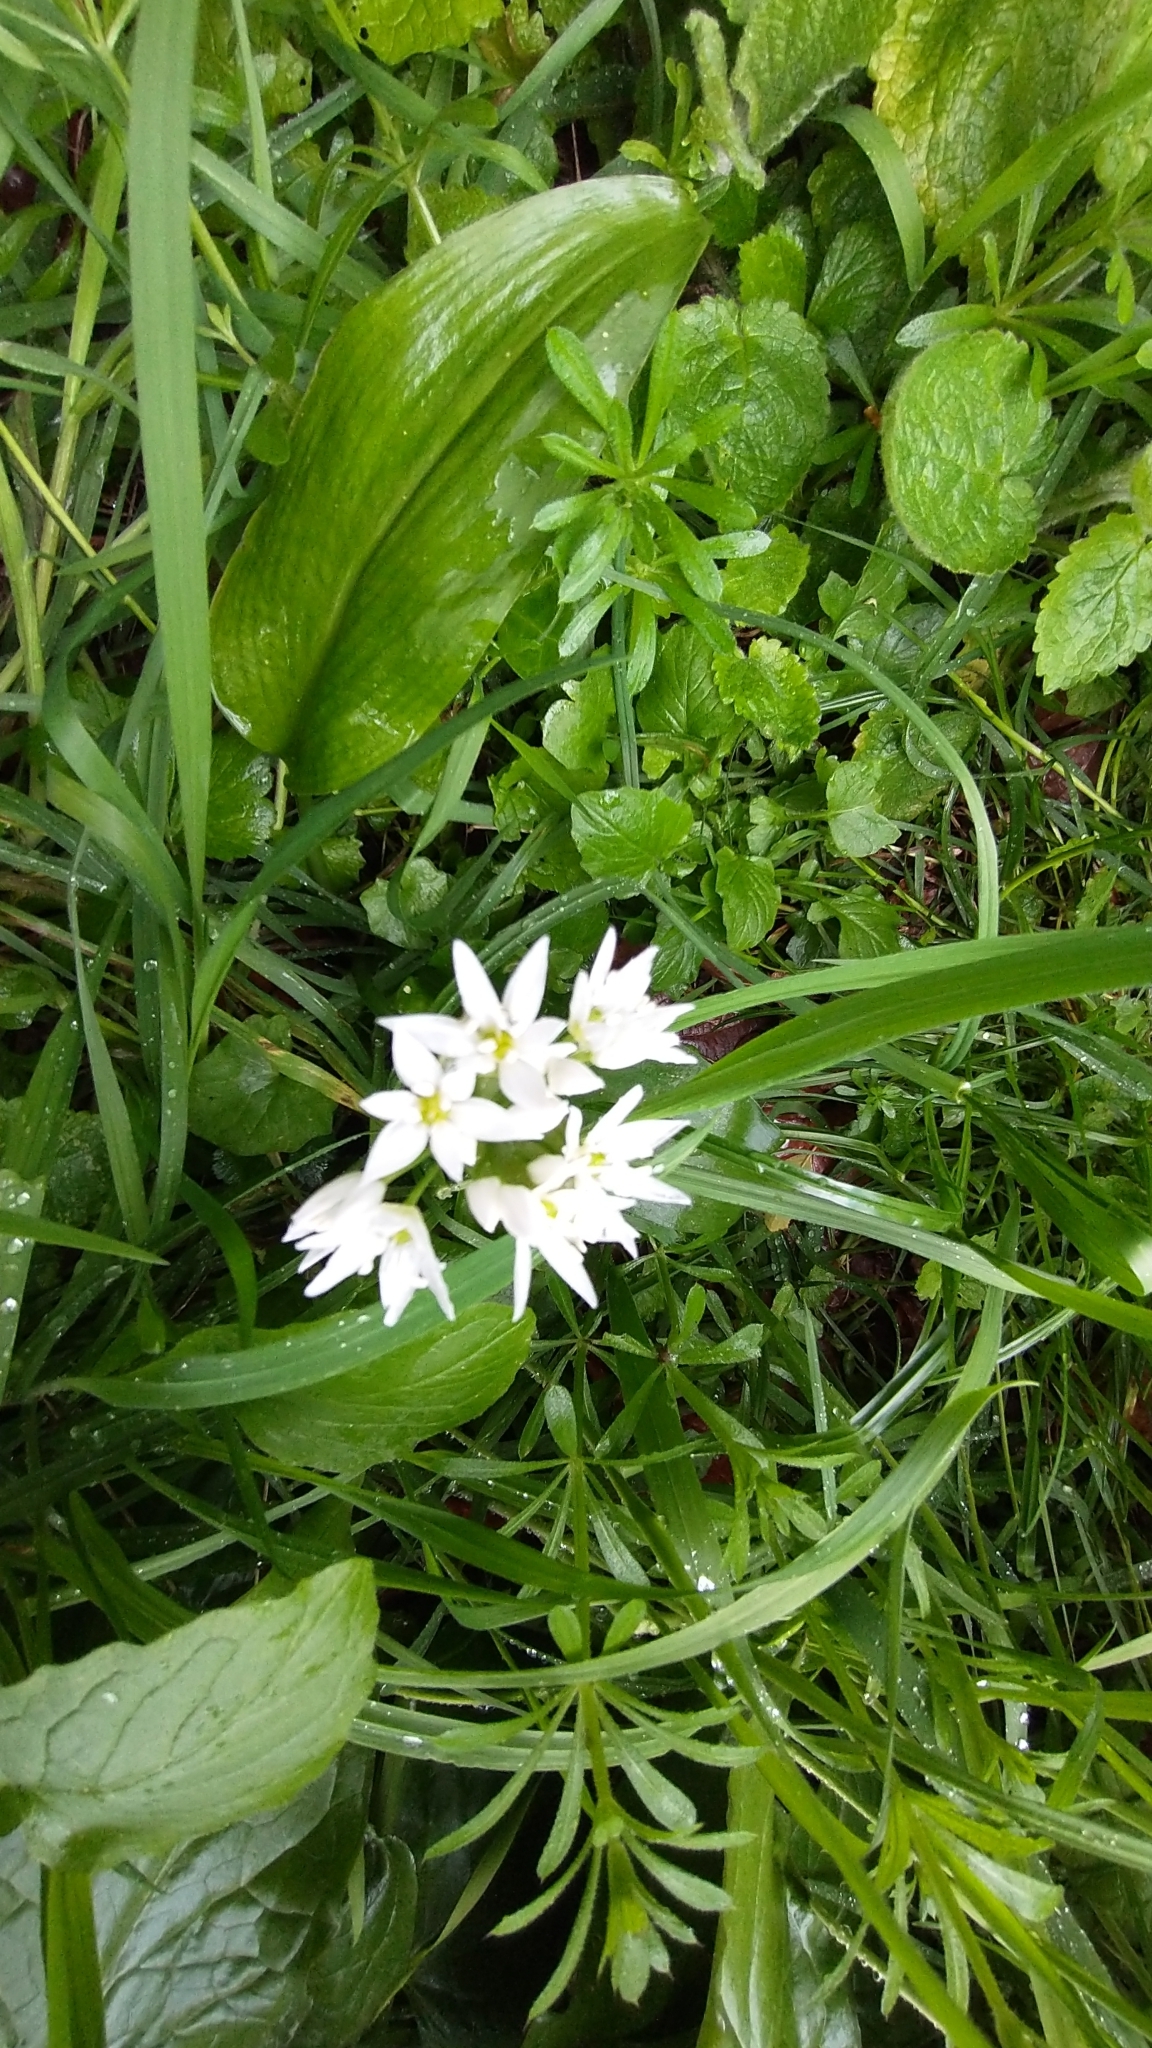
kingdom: Plantae
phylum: Tracheophyta
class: Liliopsida
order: Asparagales
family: Amaryllidaceae
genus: Allium
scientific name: Allium ursinum
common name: Ramsons
